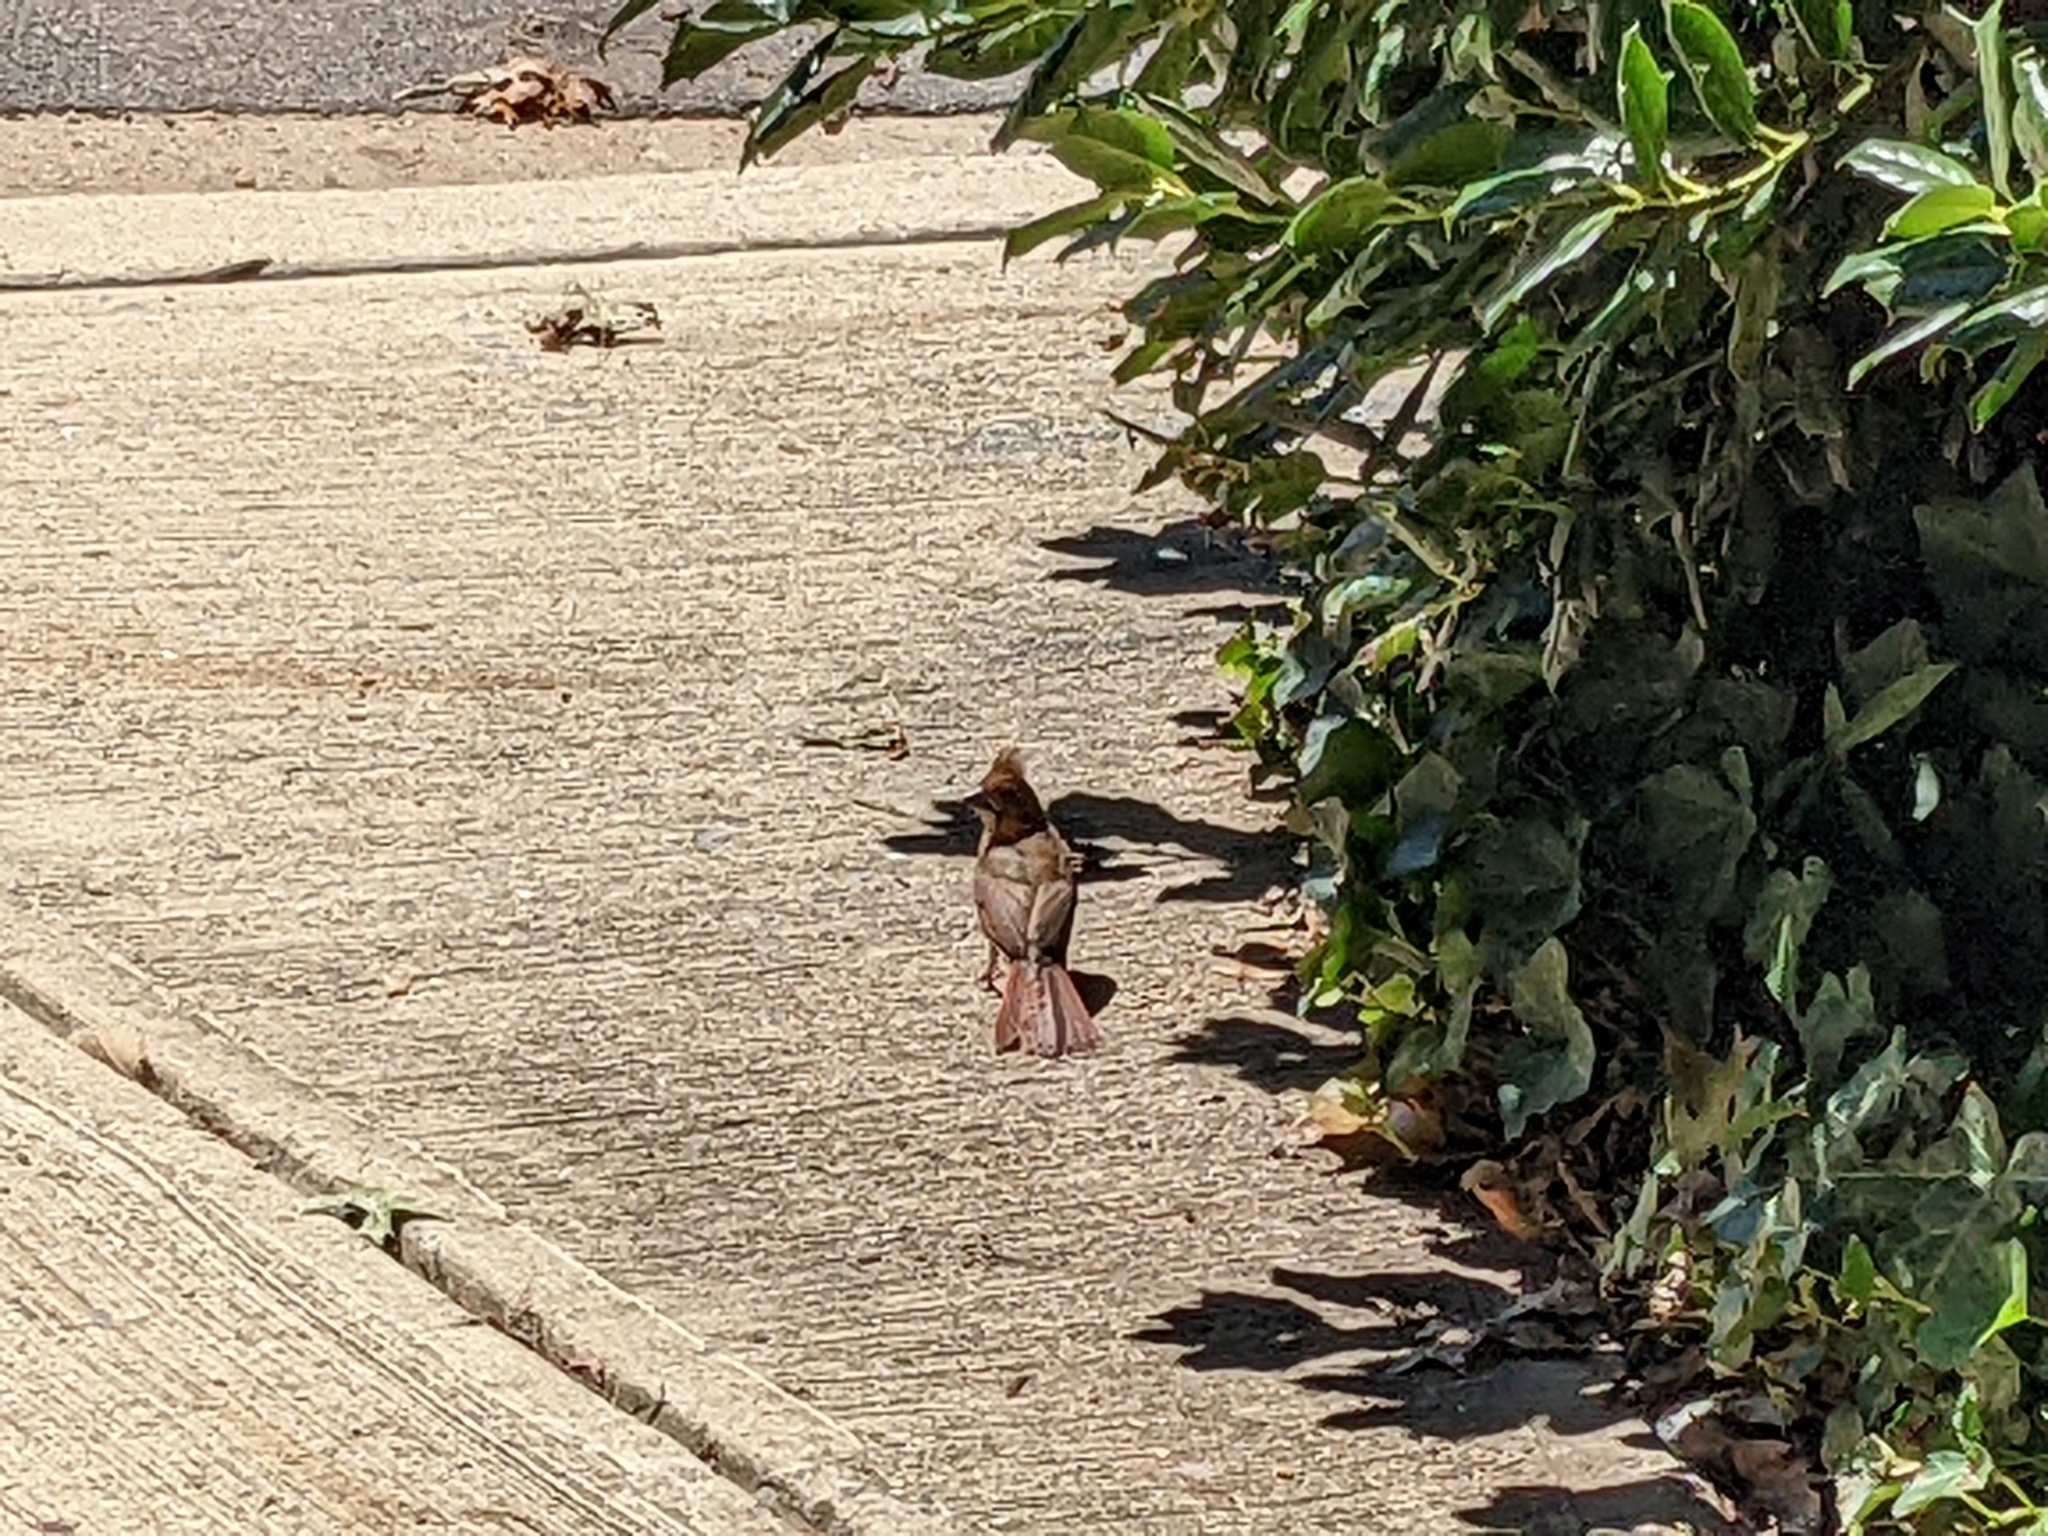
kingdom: Animalia
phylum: Chordata
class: Aves
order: Passeriformes
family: Cardinalidae
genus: Cardinalis
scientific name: Cardinalis cardinalis
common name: Northern cardinal
